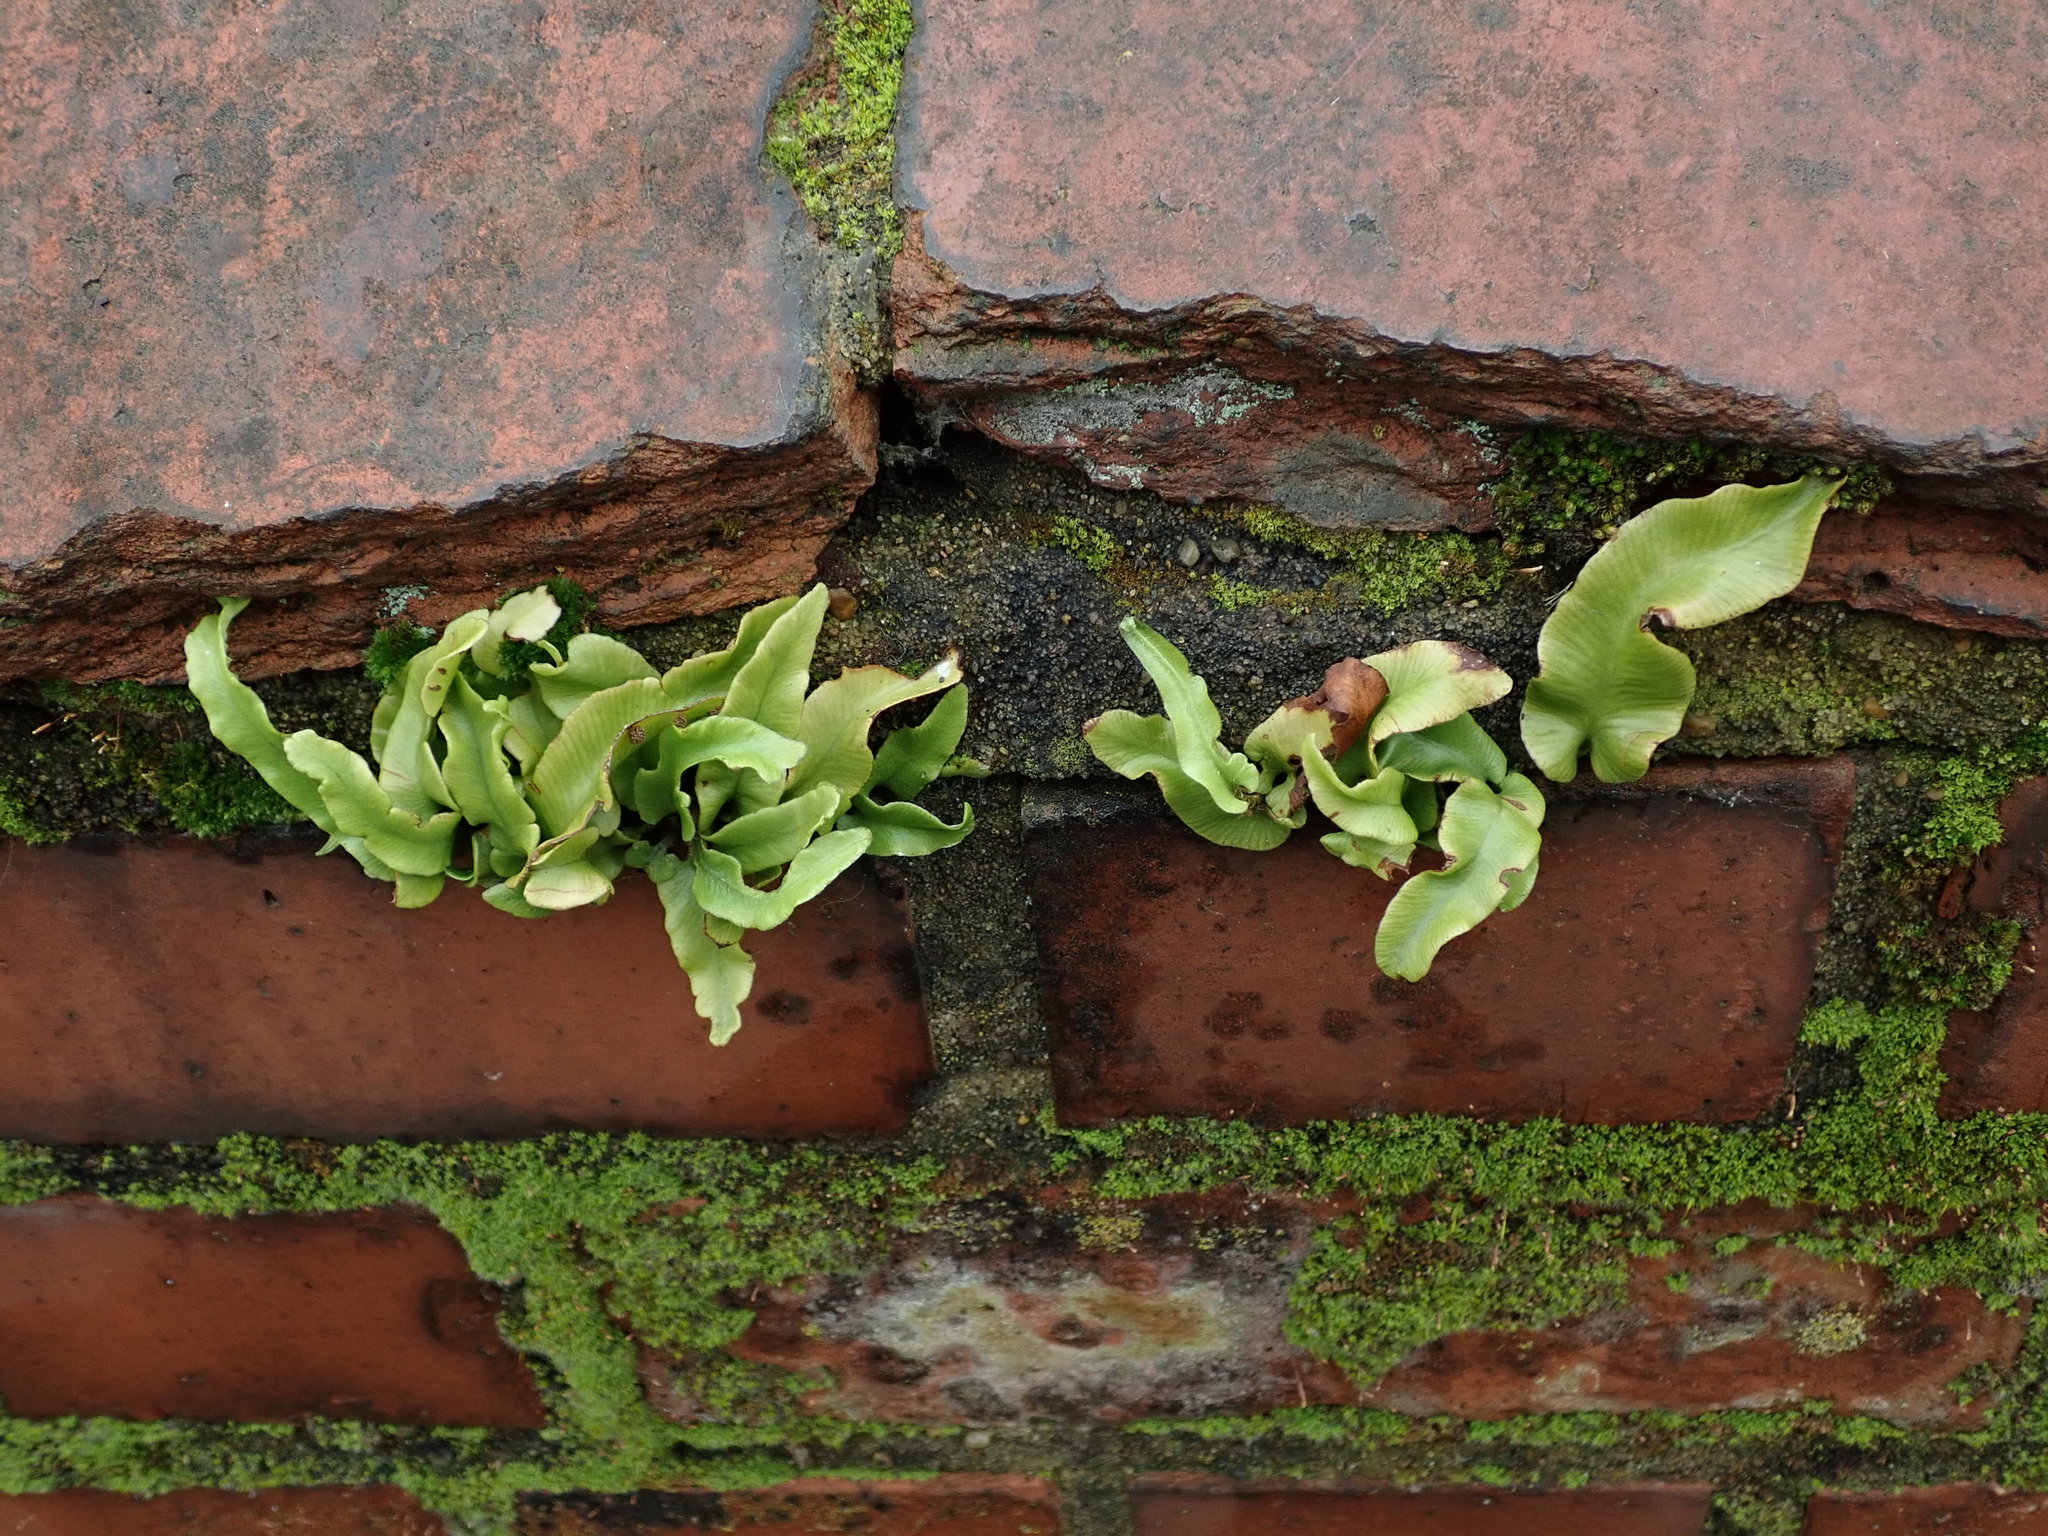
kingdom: Plantae
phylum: Tracheophyta
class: Polypodiopsida
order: Polypodiales
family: Aspleniaceae
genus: Asplenium
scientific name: Asplenium scolopendrium
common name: Hart's-tongue fern
